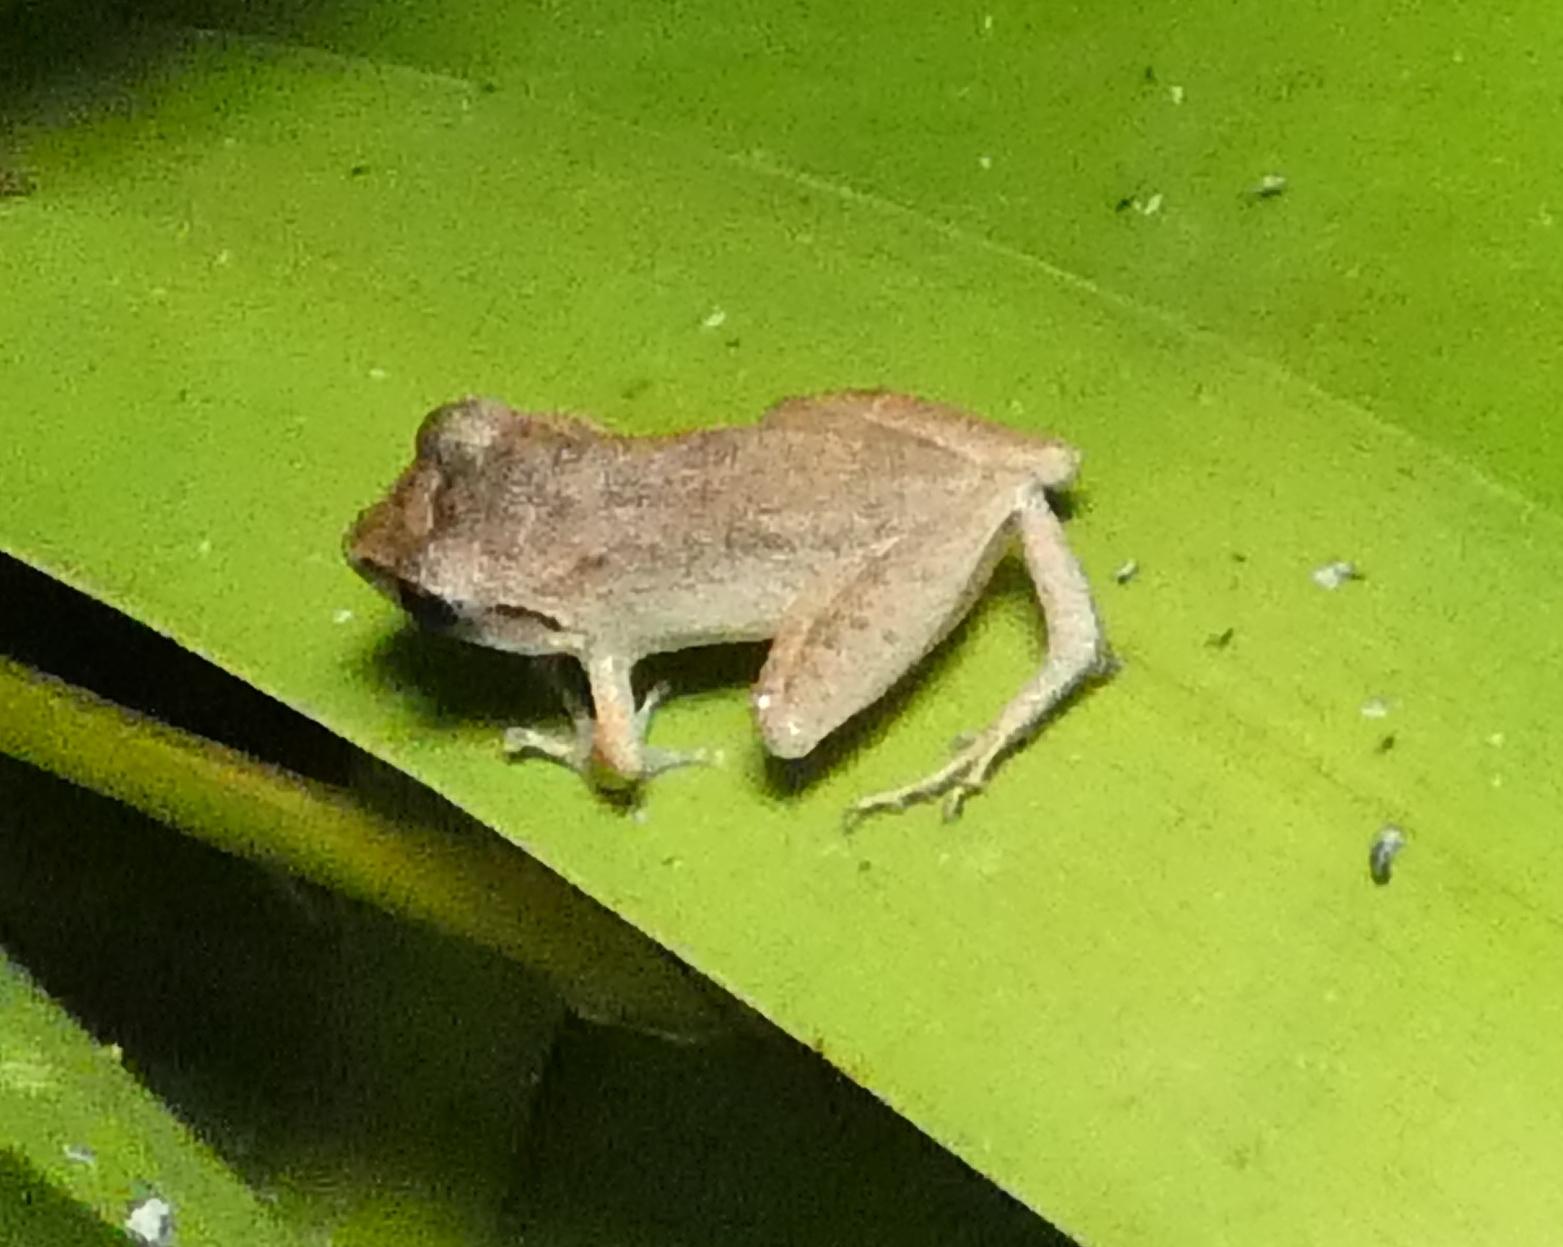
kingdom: Animalia
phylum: Chordata
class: Amphibia
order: Anura
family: Craugastoridae
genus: Pristimantis
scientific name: Pristimantis ramagii
